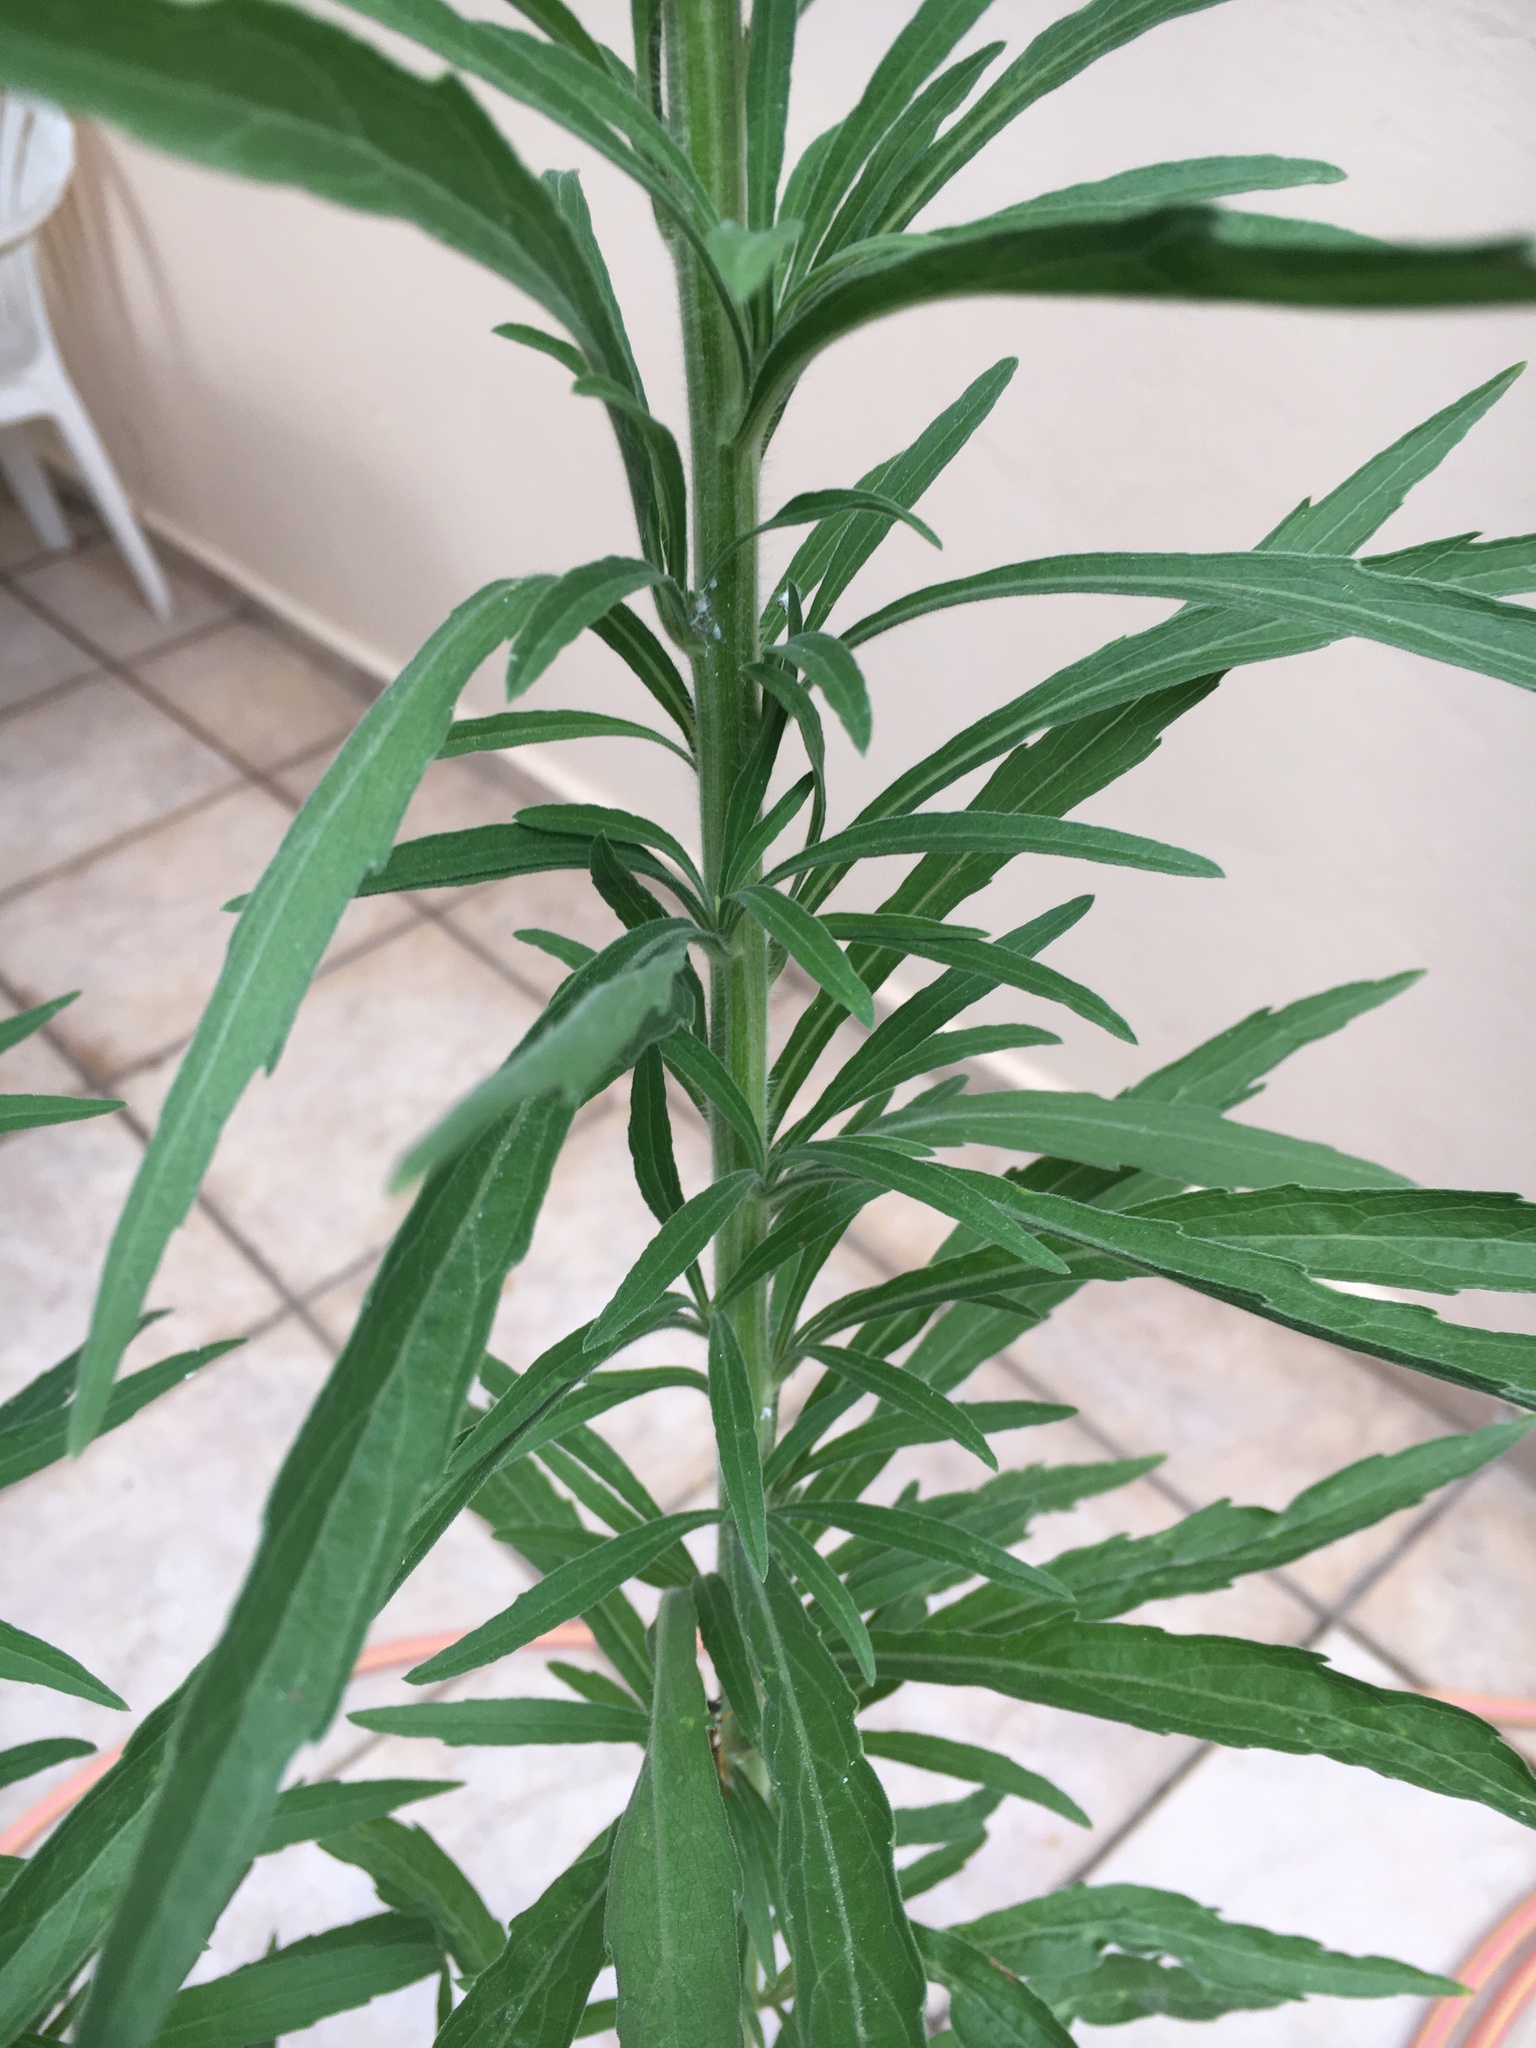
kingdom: Plantae
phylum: Tracheophyta
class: Magnoliopsida
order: Asterales
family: Asteraceae
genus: Erigeron
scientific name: Erigeron sumatrensis
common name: Daisy
